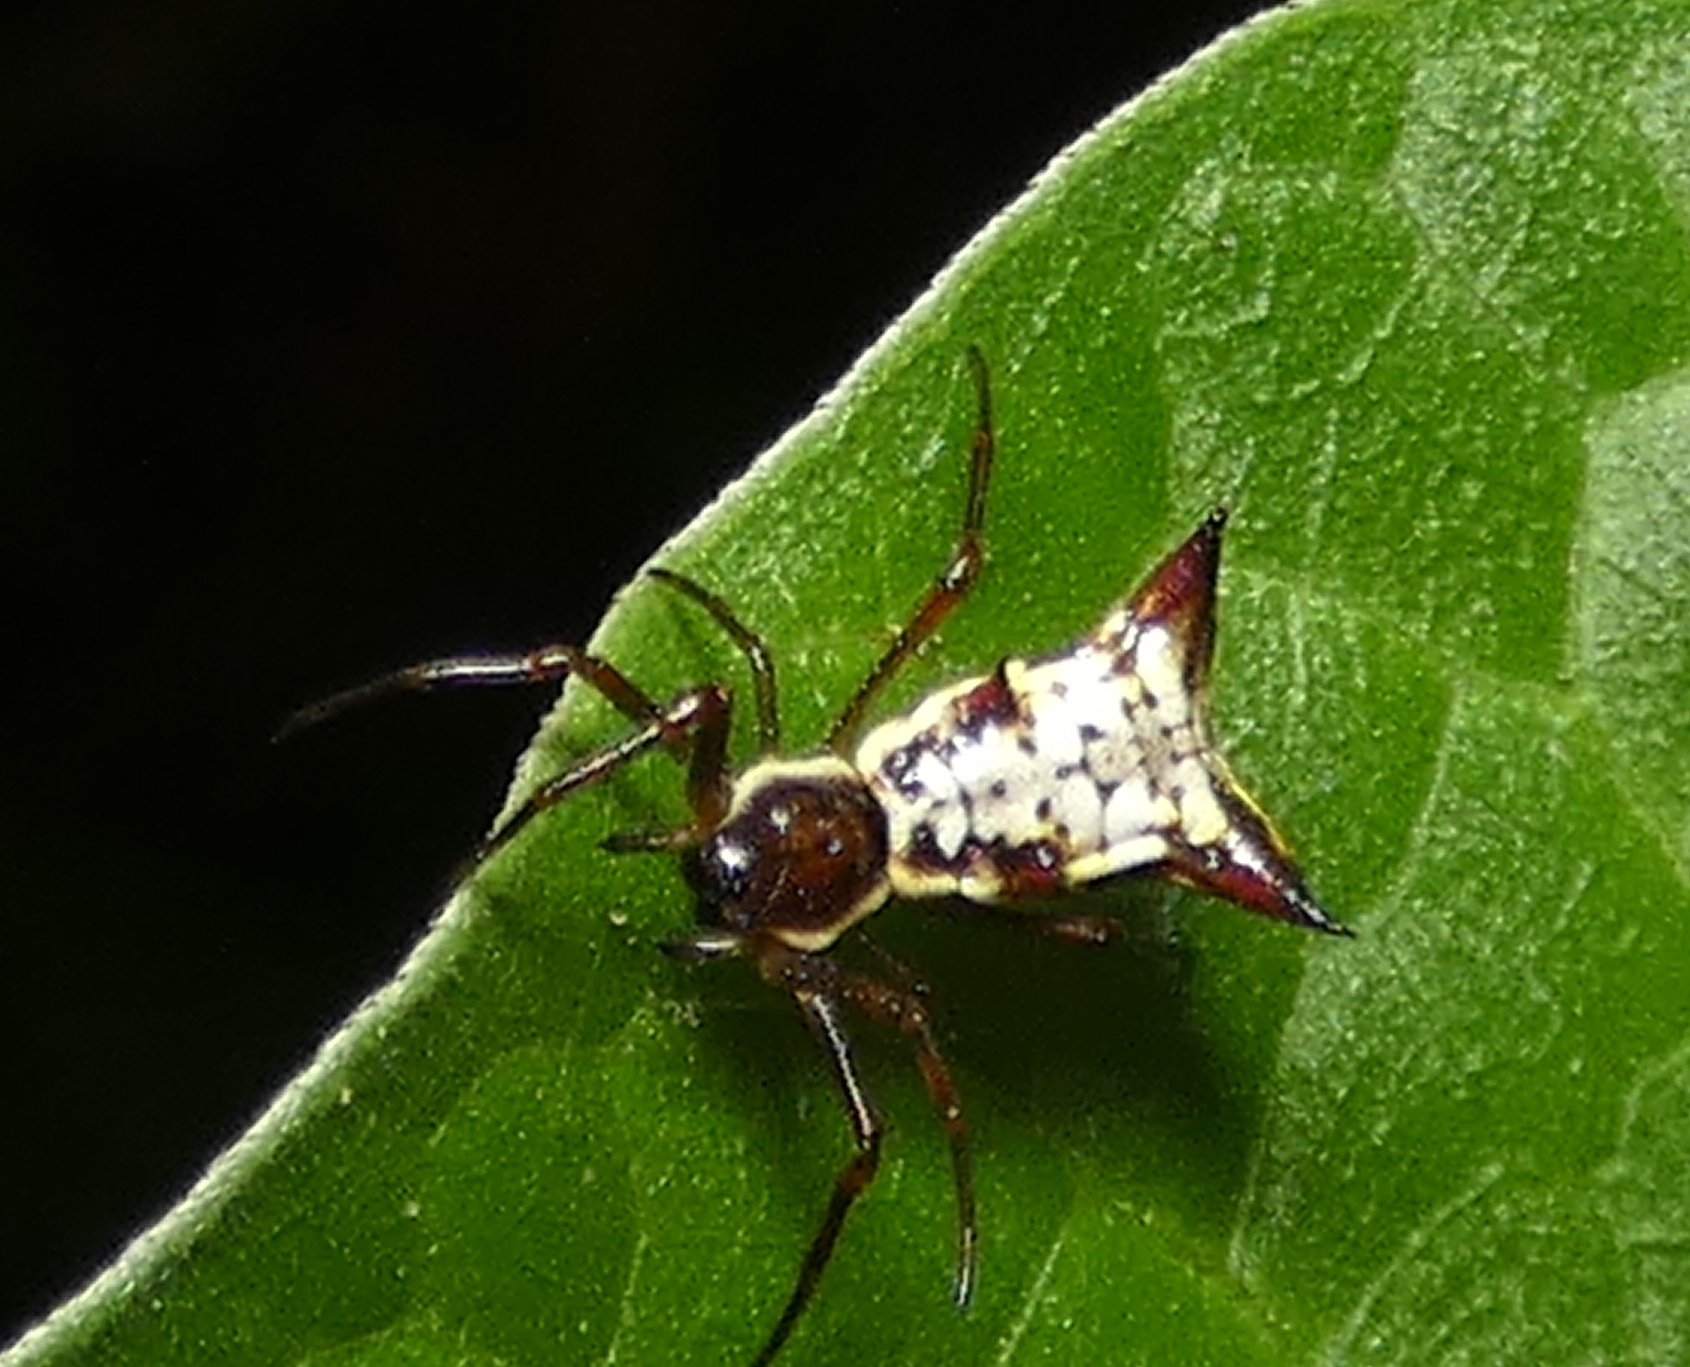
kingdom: Animalia
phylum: Arthropoda
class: Arachnida
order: Araneae
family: Araneidae
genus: Micrathena
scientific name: Micrathena fissispina
